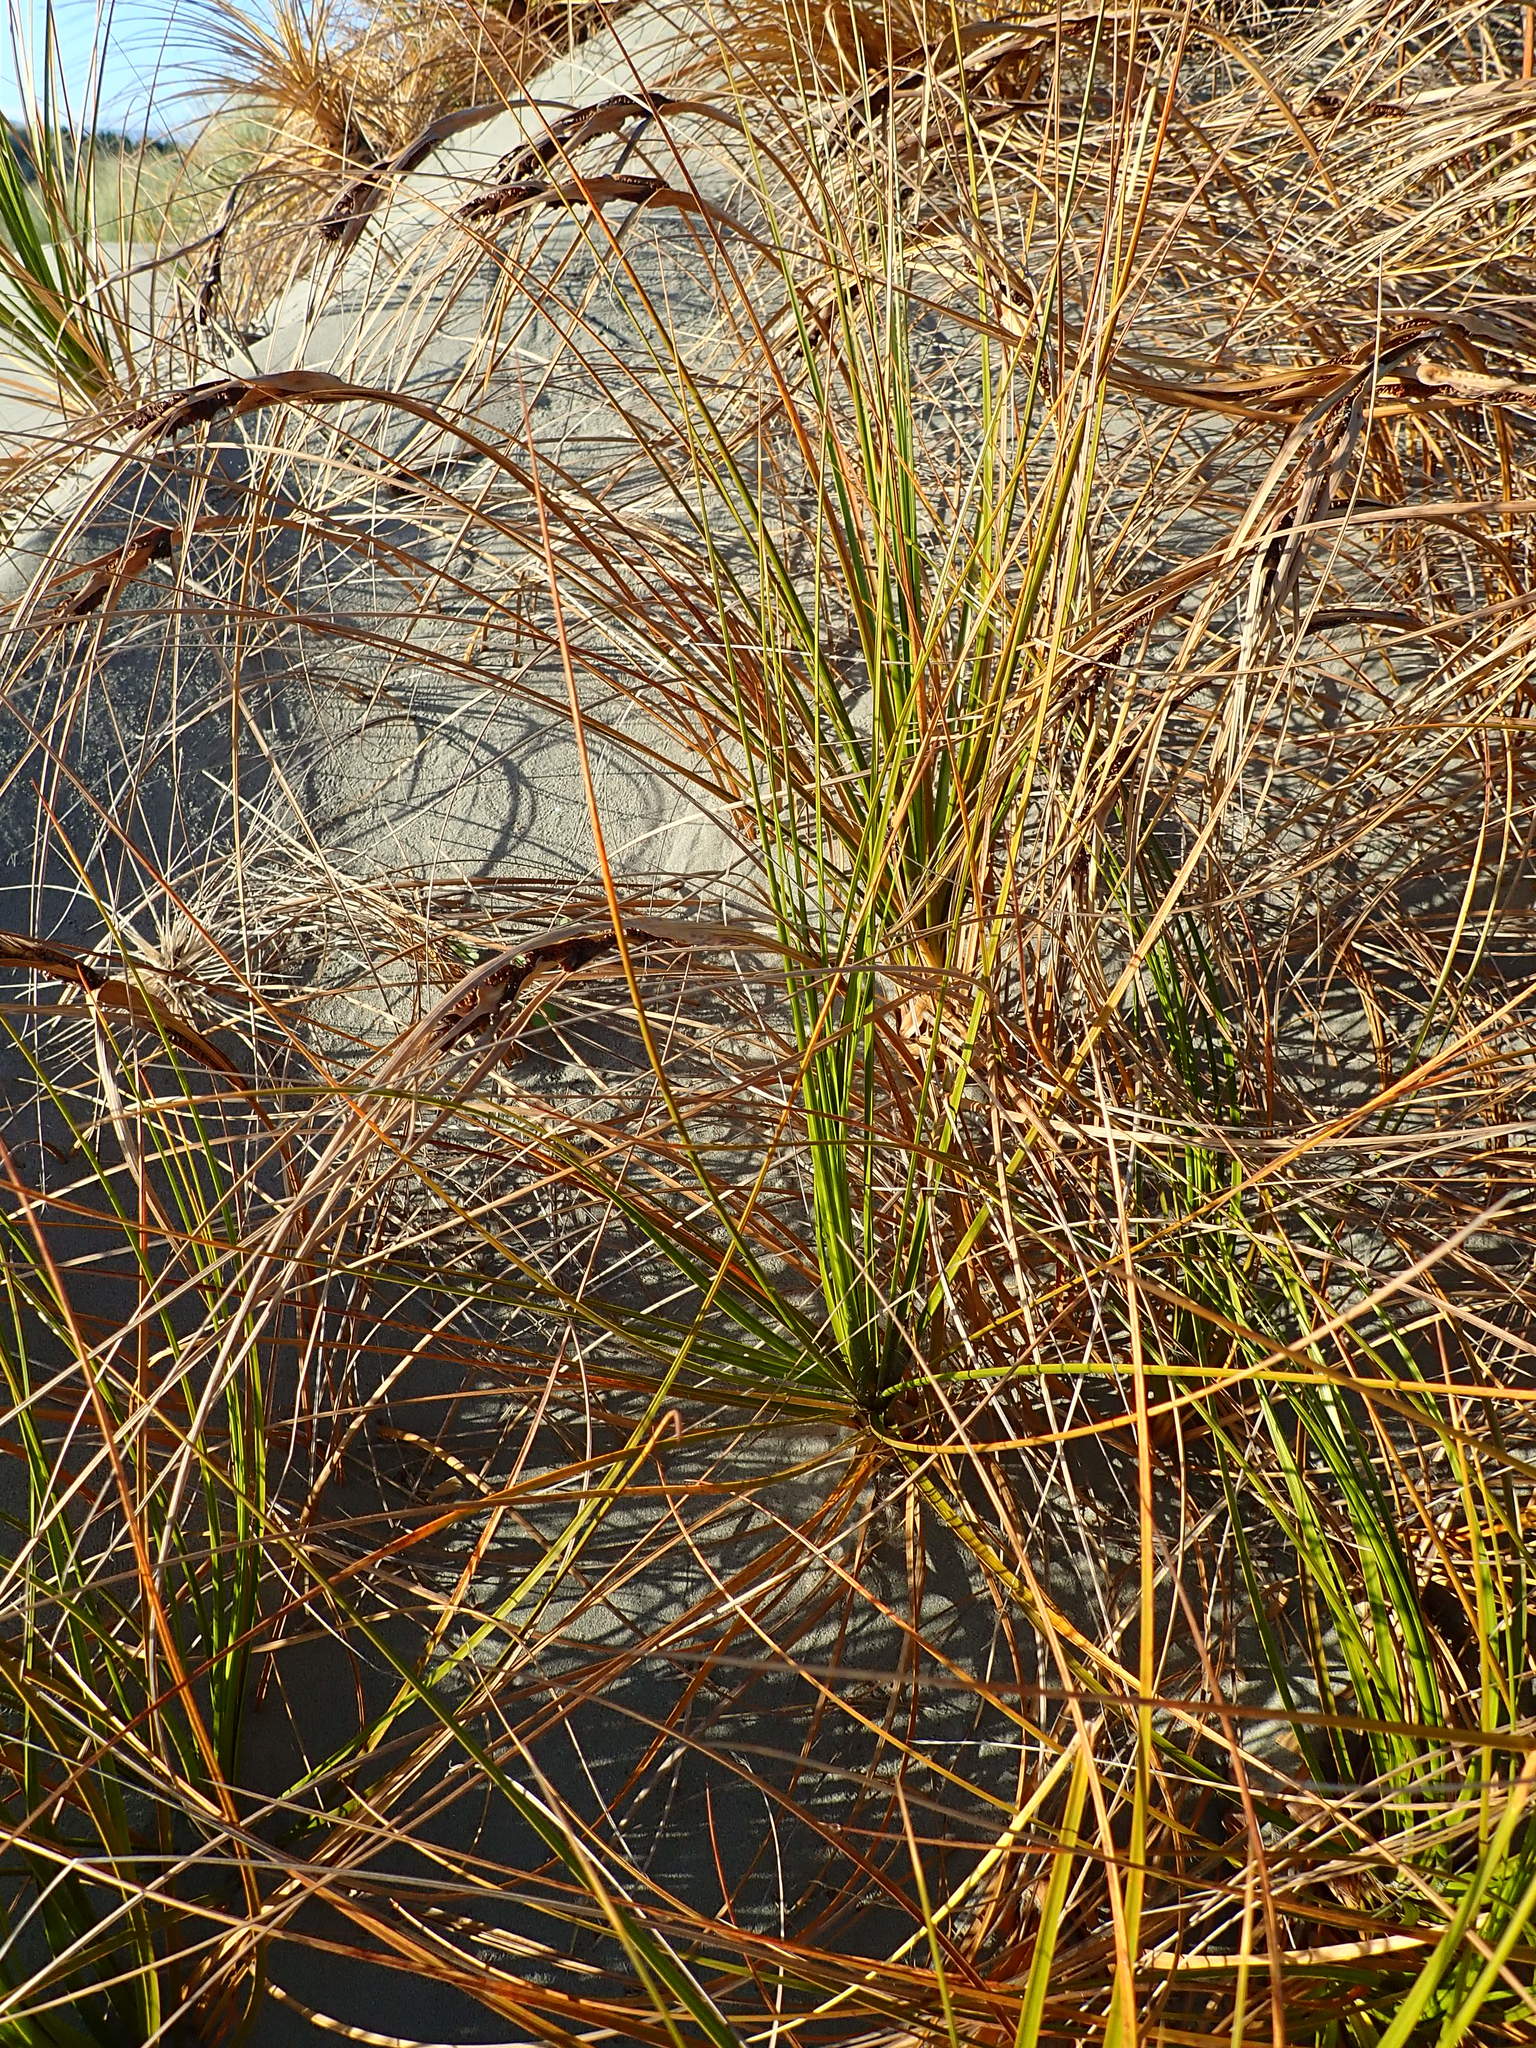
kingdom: Plantae
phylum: Tracheophyta
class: Liliopsida
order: Poales
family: Cyperaceae
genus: Ficinia
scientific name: Ficinia spiralis
